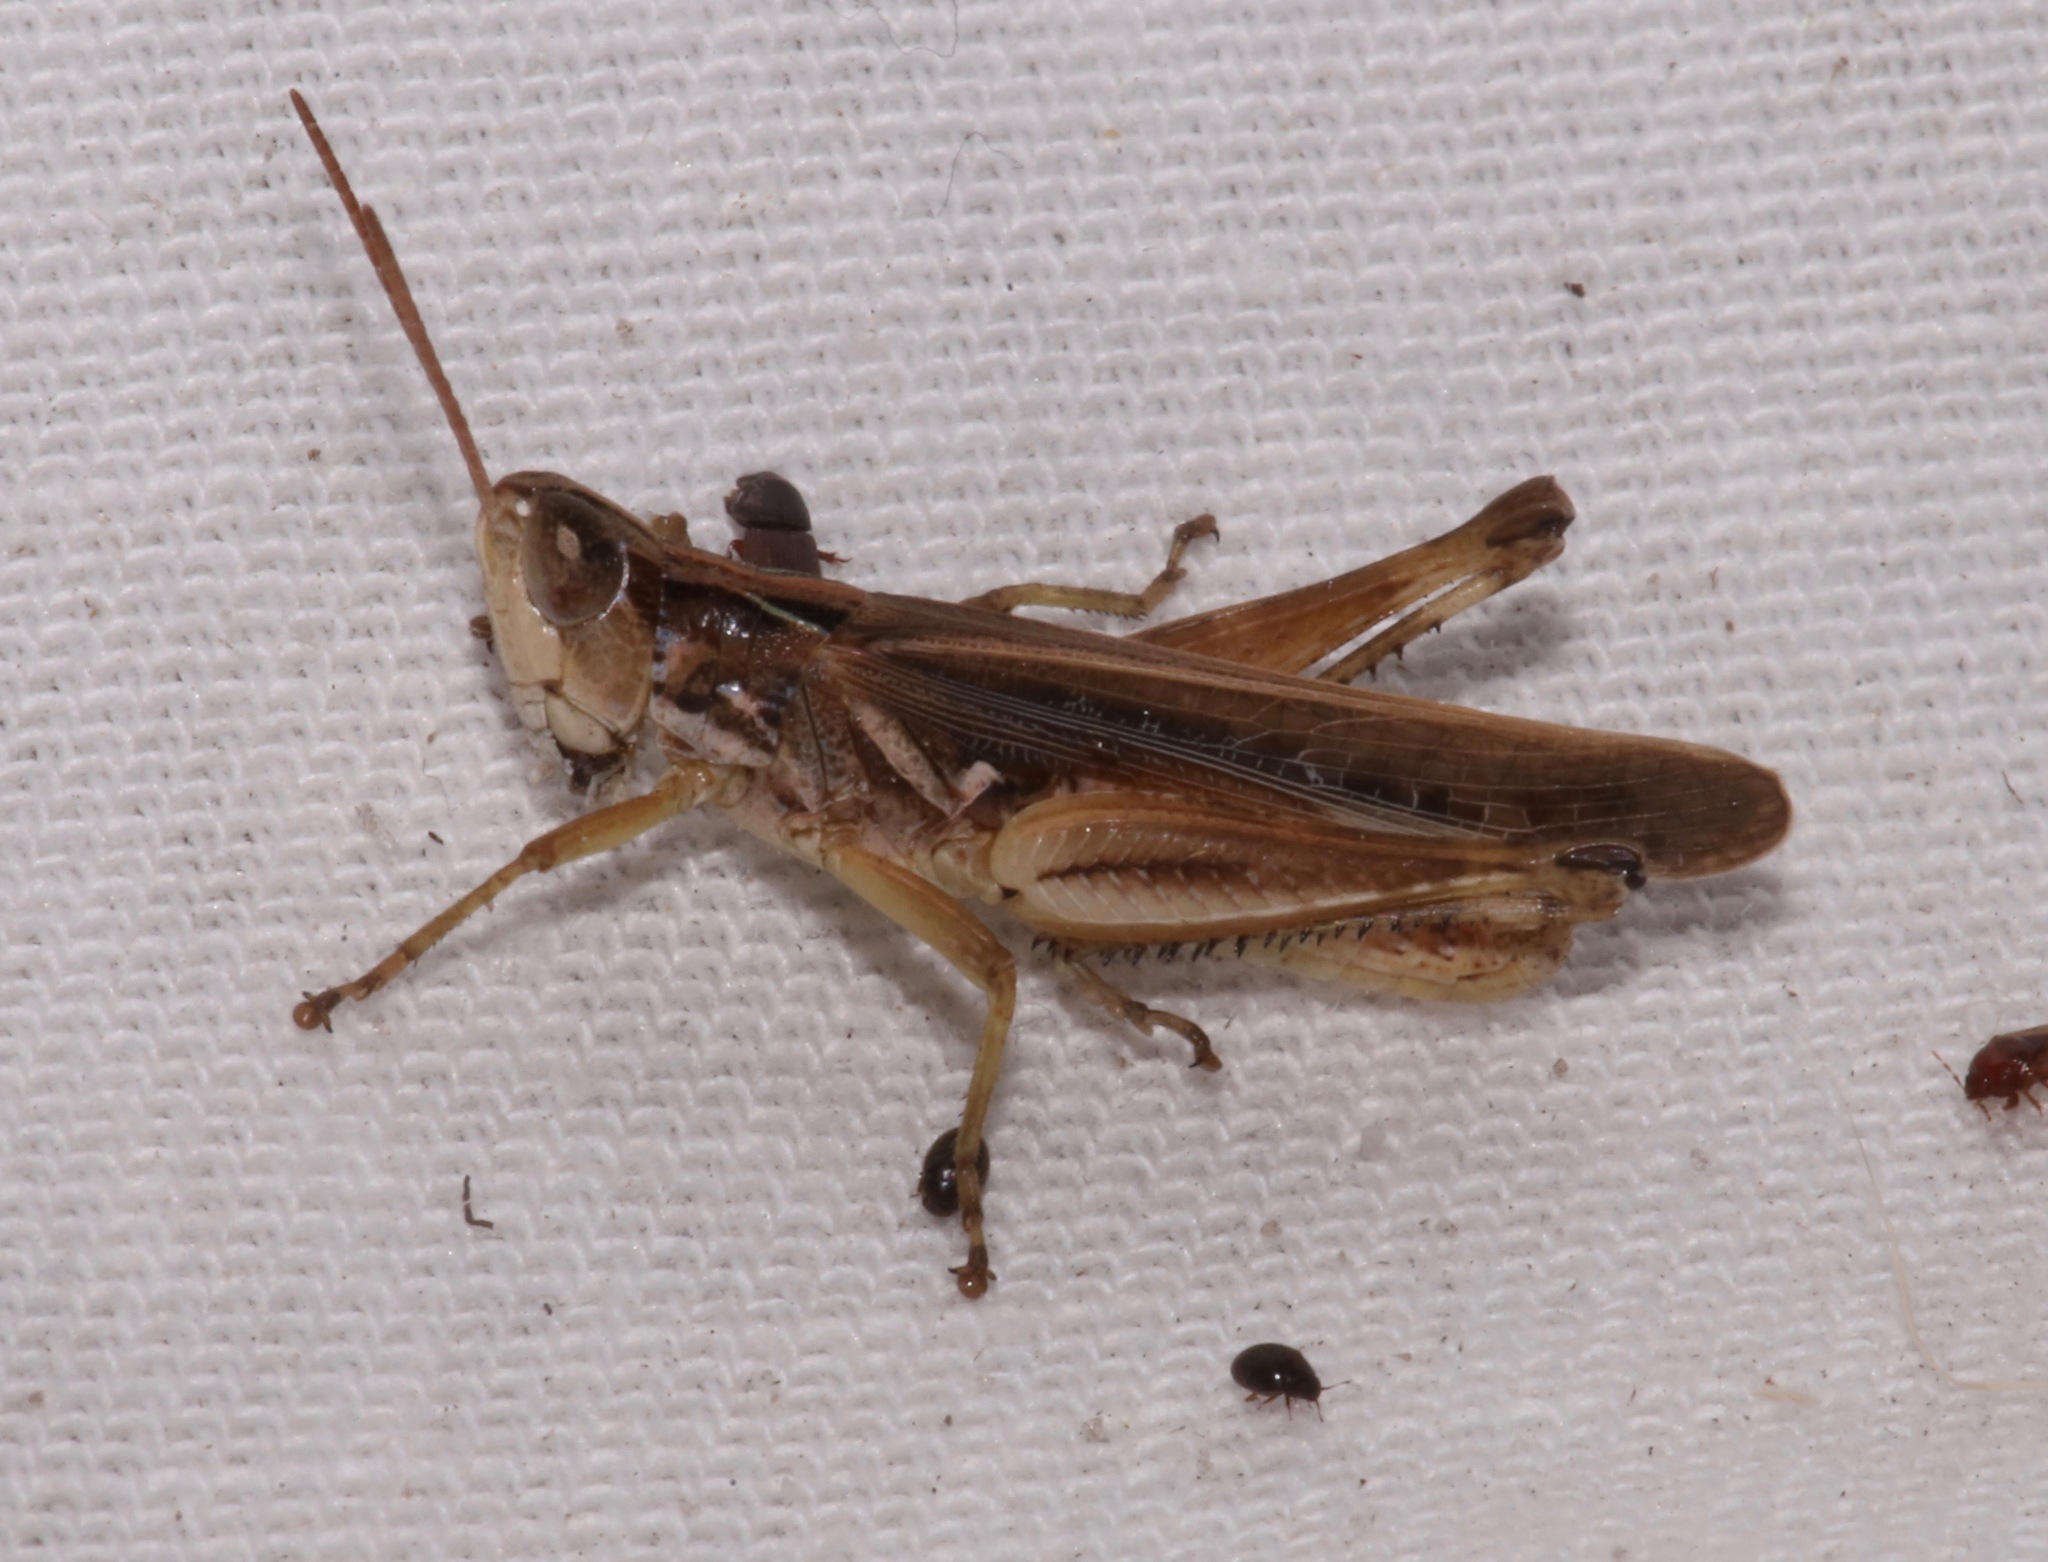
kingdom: Animalia
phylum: Arthropoda
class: Insecta
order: Orthoptera
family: Acrididae
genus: Orphulella
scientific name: Orphulella pelidna
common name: Spotted-wing grasshopper
